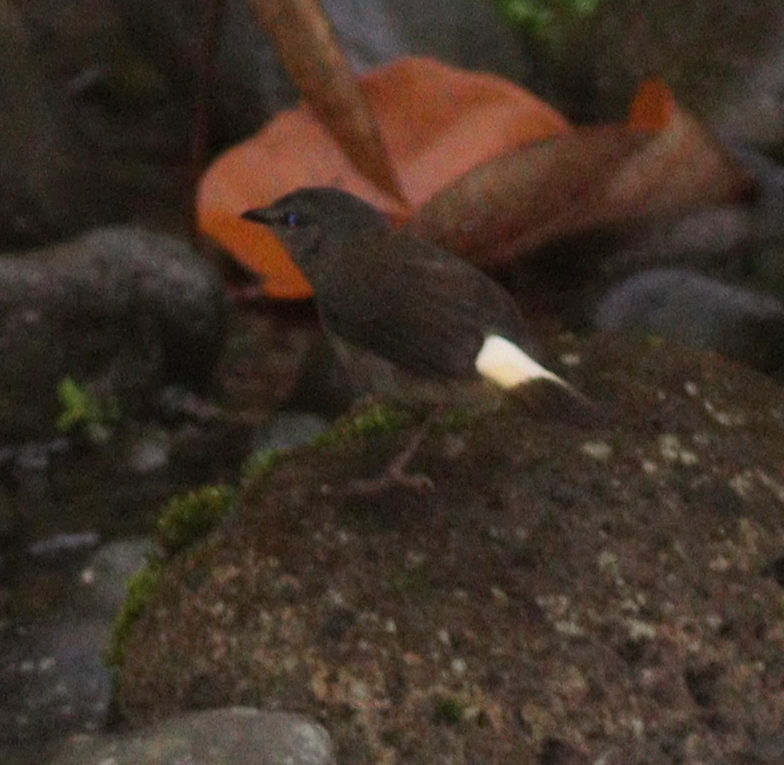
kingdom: Animalia
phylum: Chordata
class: Aves
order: Passeriformes
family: Parulidae
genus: Myiothlypis
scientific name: Myiothlypis fulvicauda
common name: Buff-rumped warbler
